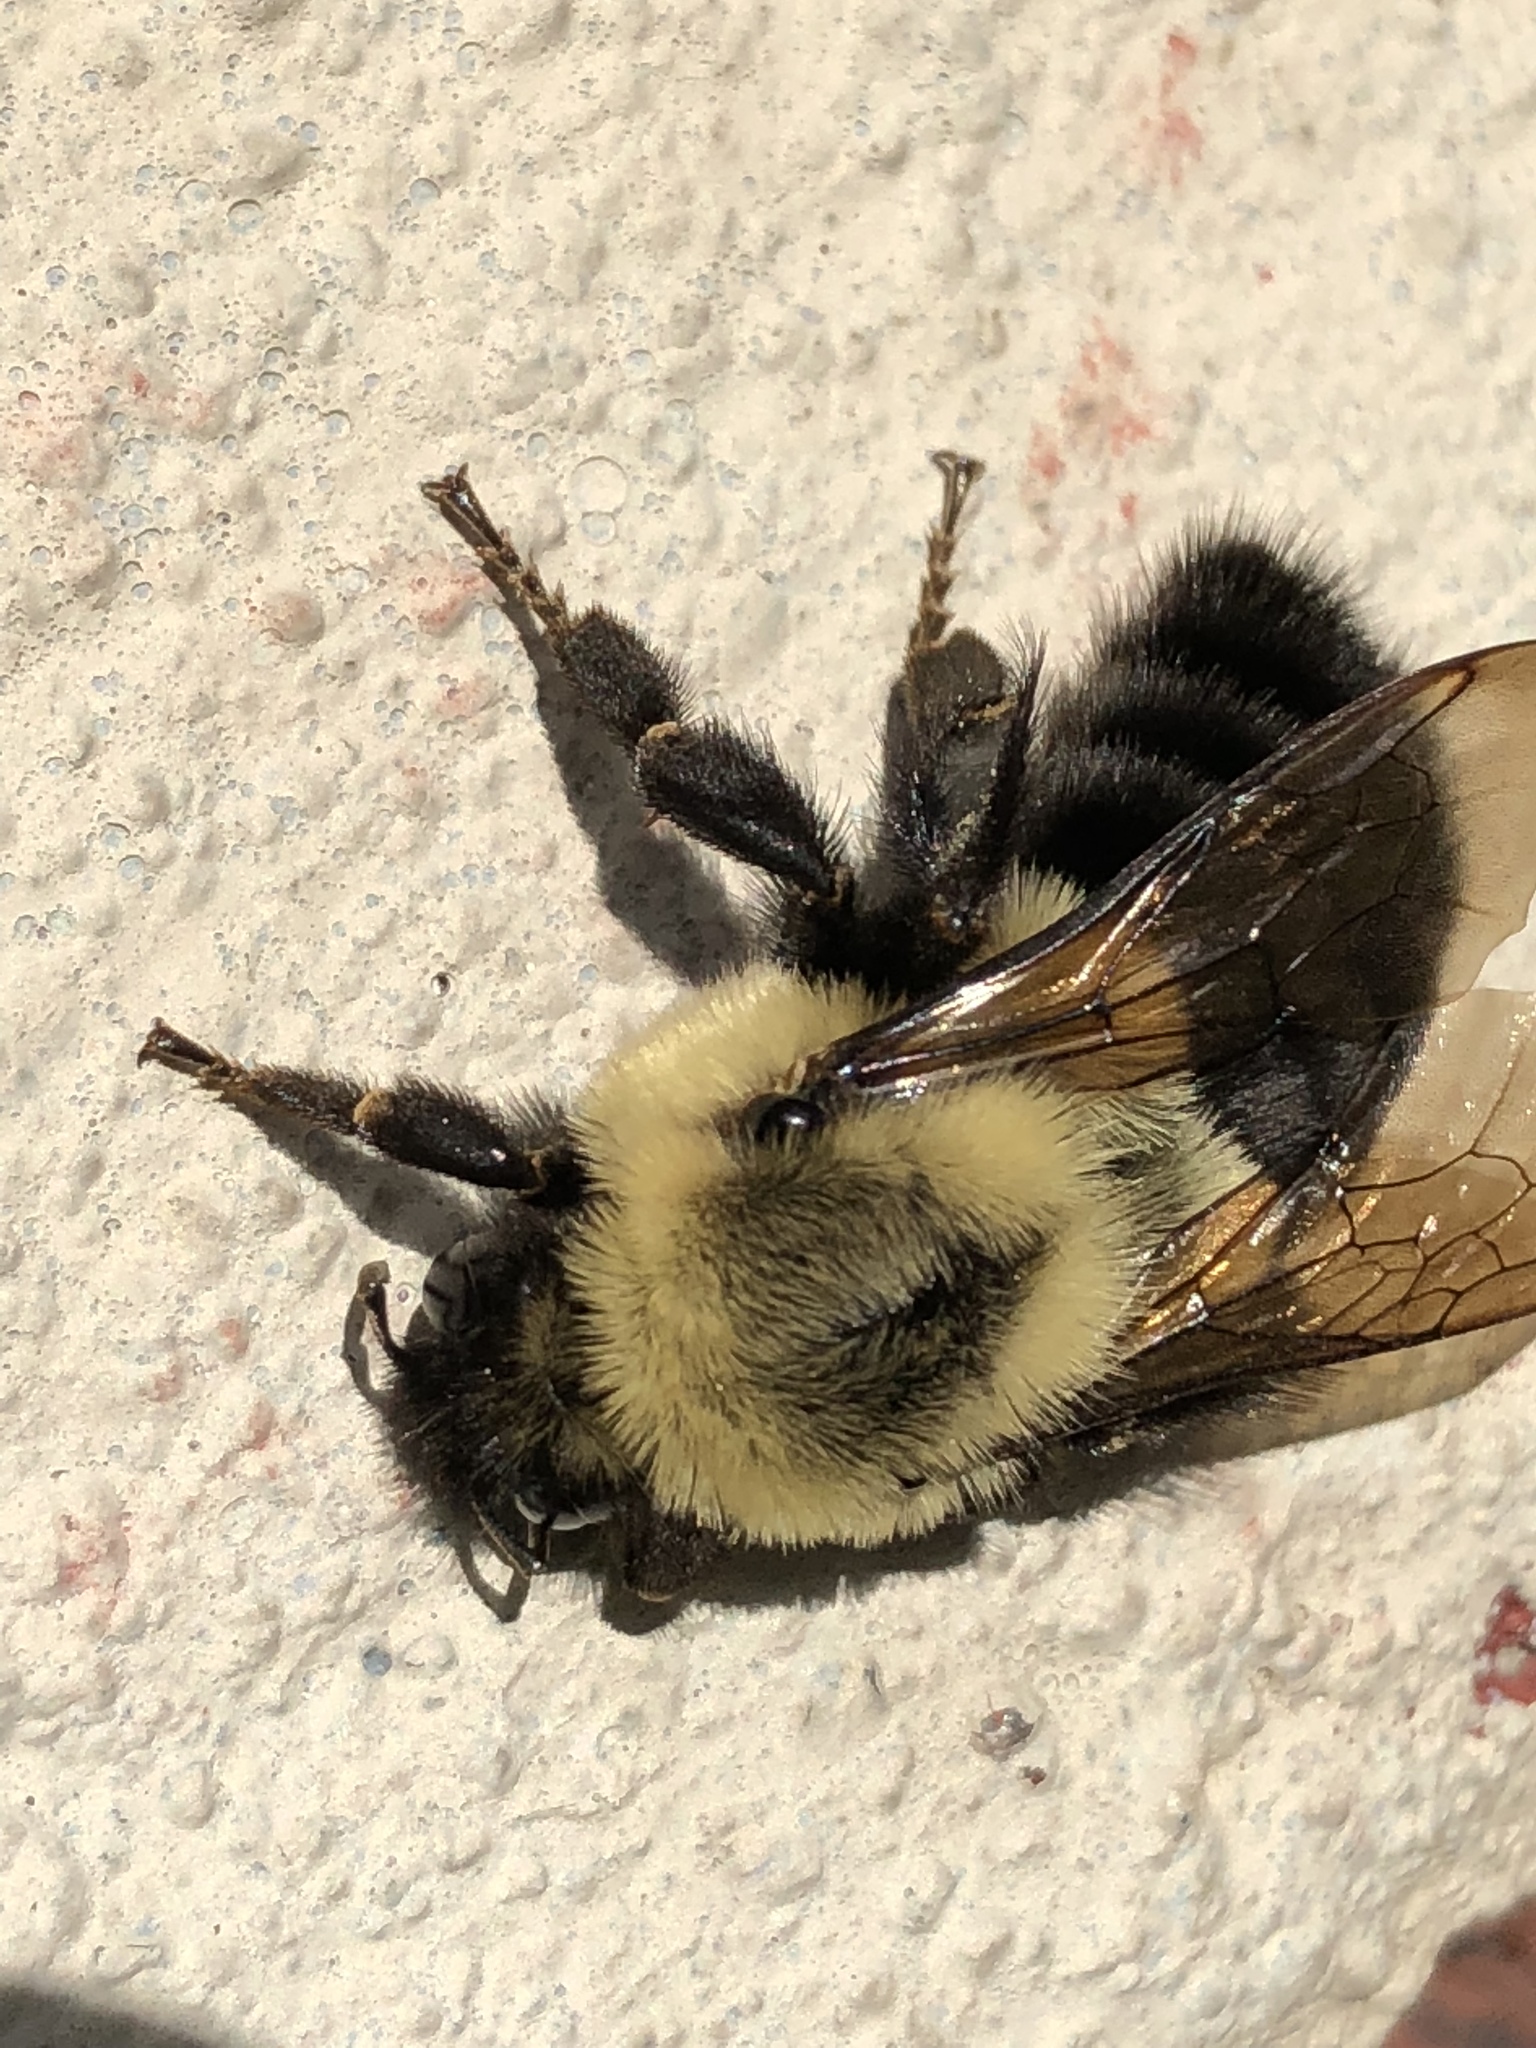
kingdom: Animalia
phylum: Arthropoda
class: Insecta
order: Hymenoptera
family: Apidae
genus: Bombus
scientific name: Bombus impatiens
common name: Common eastern bumble bee
